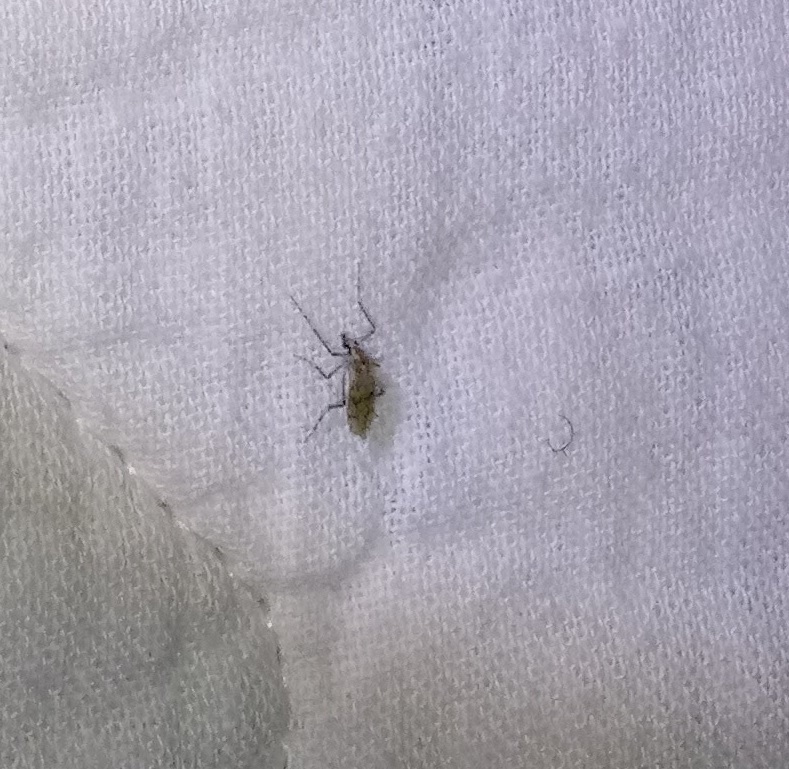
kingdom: Animalia
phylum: Arthropoda
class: Insecta
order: Diptera
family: Chaoboridae
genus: Chaoborus
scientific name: Chaoborus punctipennis
